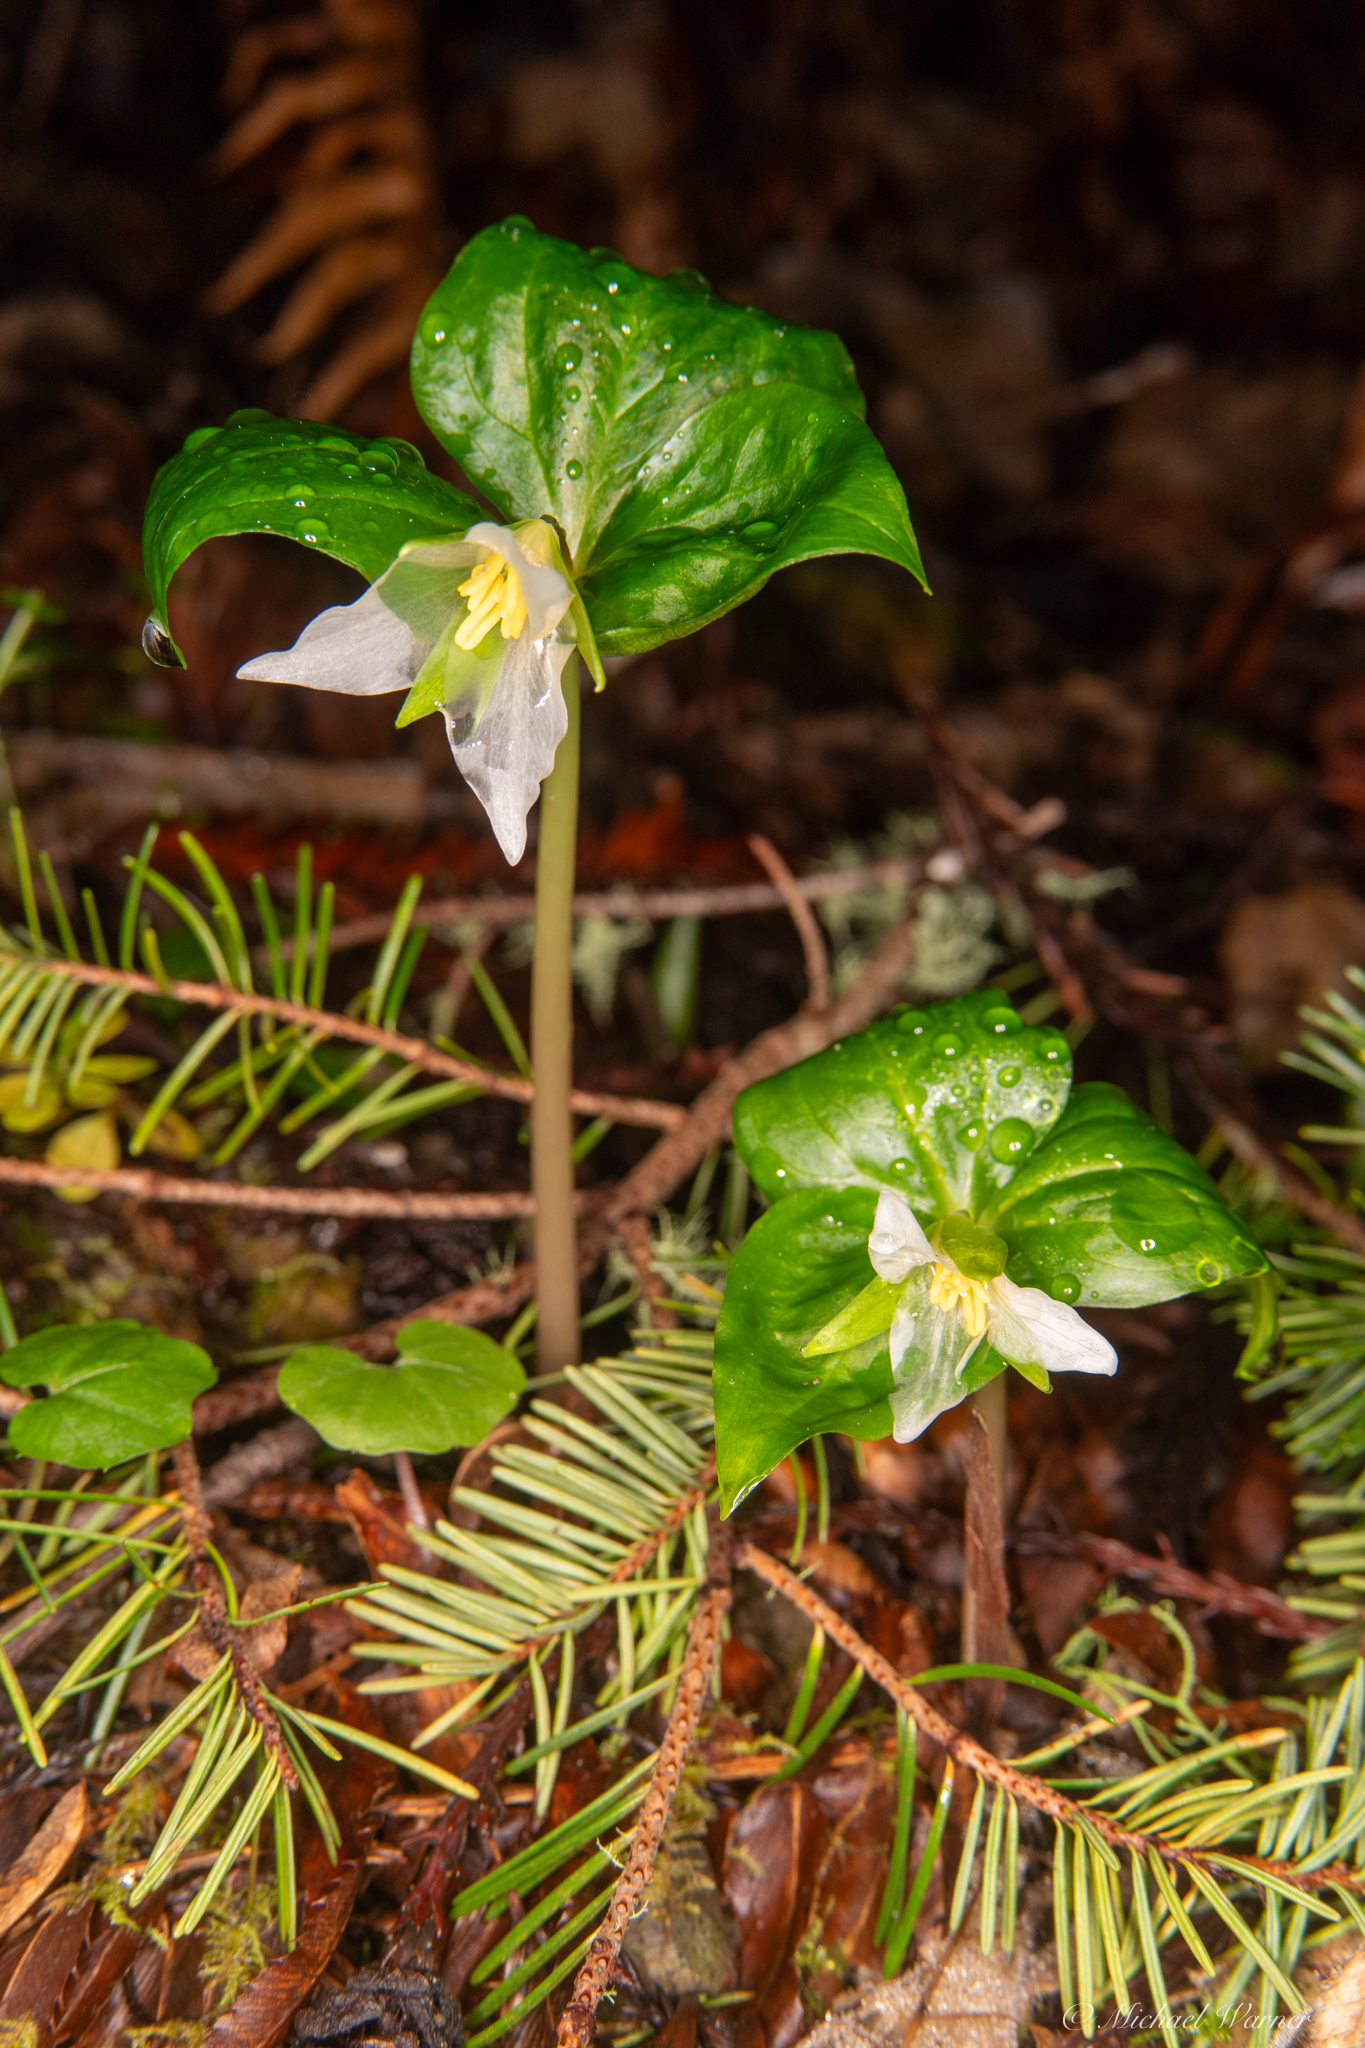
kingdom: Plantae
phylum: Tracheophyta
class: Liliopsida
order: Liliales
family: Melanthiaceae
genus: Trillium
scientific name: Trillium ovatum
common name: Pacific trillium
